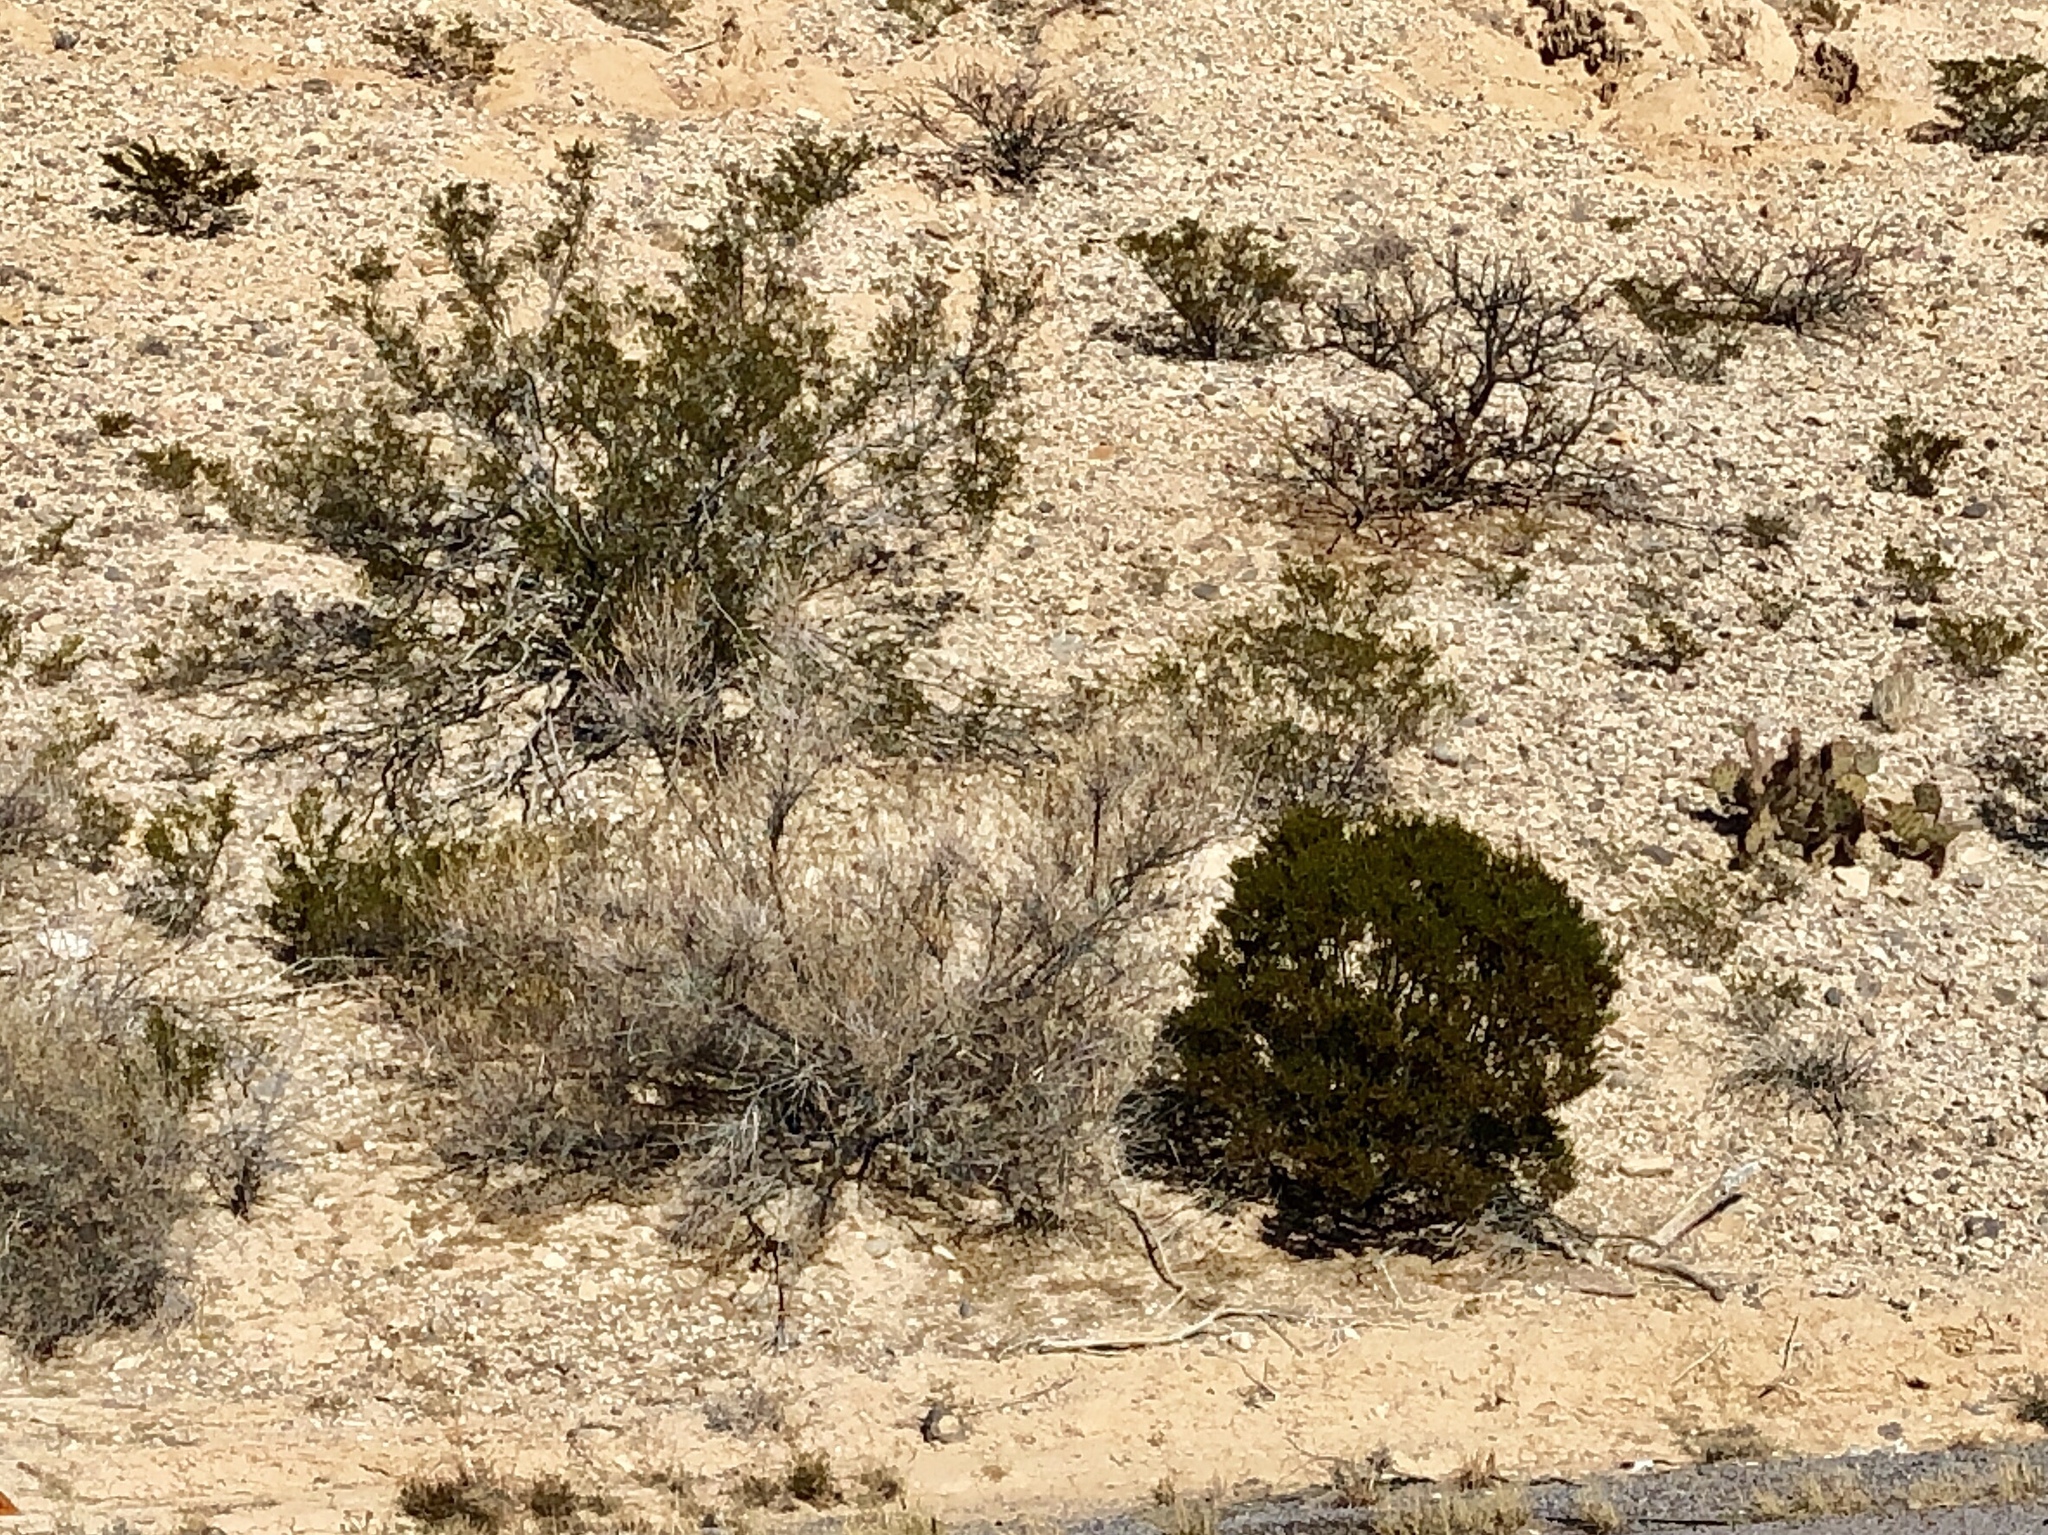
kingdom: Plantae
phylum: Tracheophyta
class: Magnoliopsida
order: Zygophyllales
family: Zygophyllaceae
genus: Larrea
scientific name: Larrea tridentata
